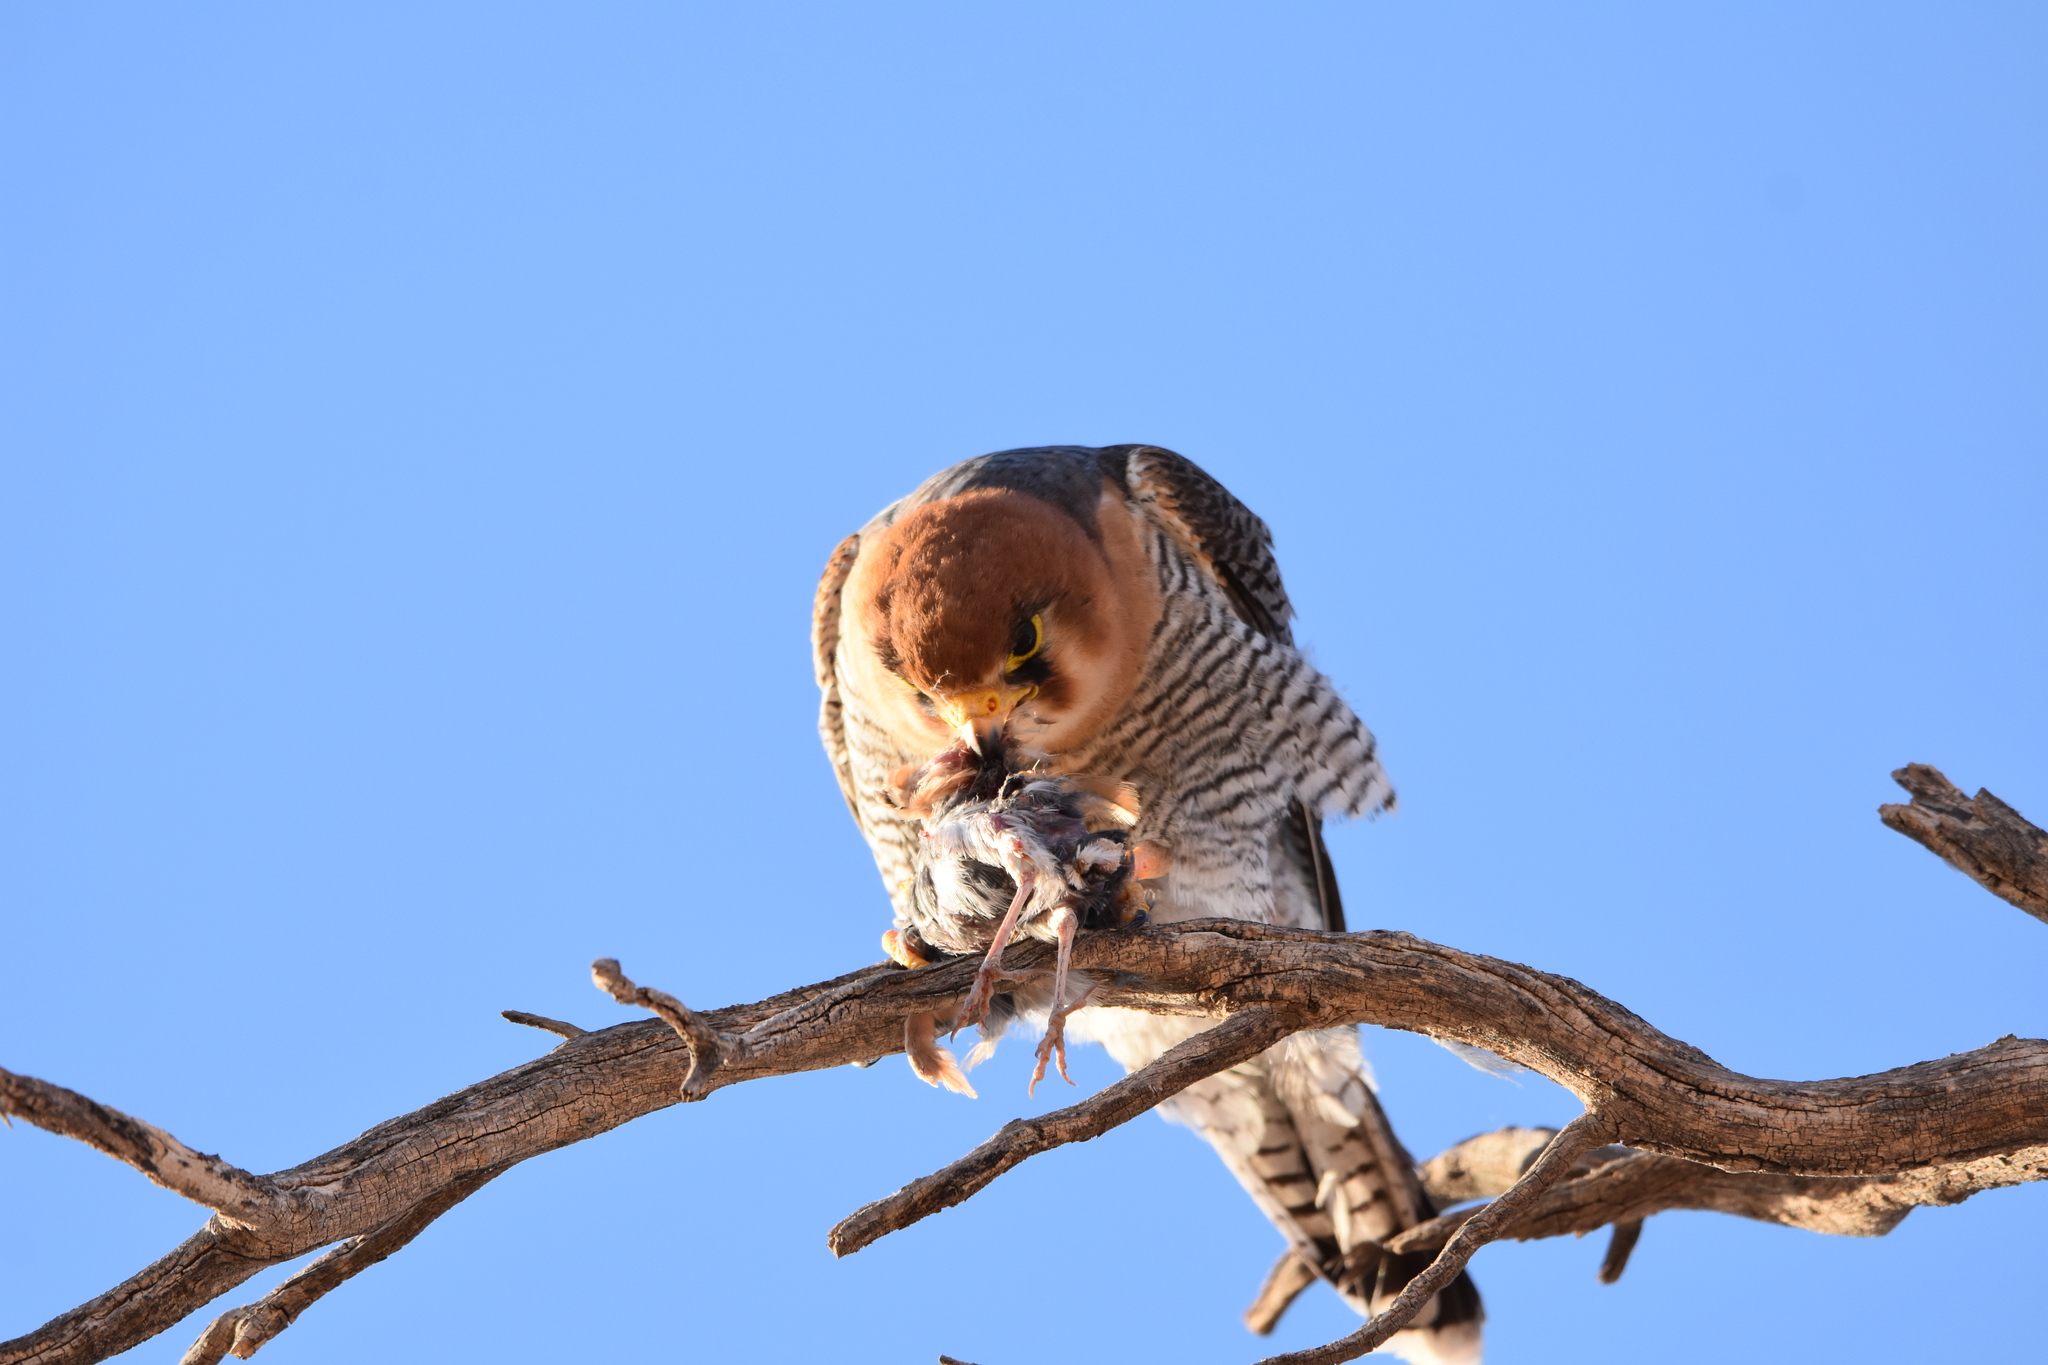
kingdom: Animalia
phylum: Chordata
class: Aves
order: Falconiformes
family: Falconidae
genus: Falco
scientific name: Falco chicquera
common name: Red-necked falcon
